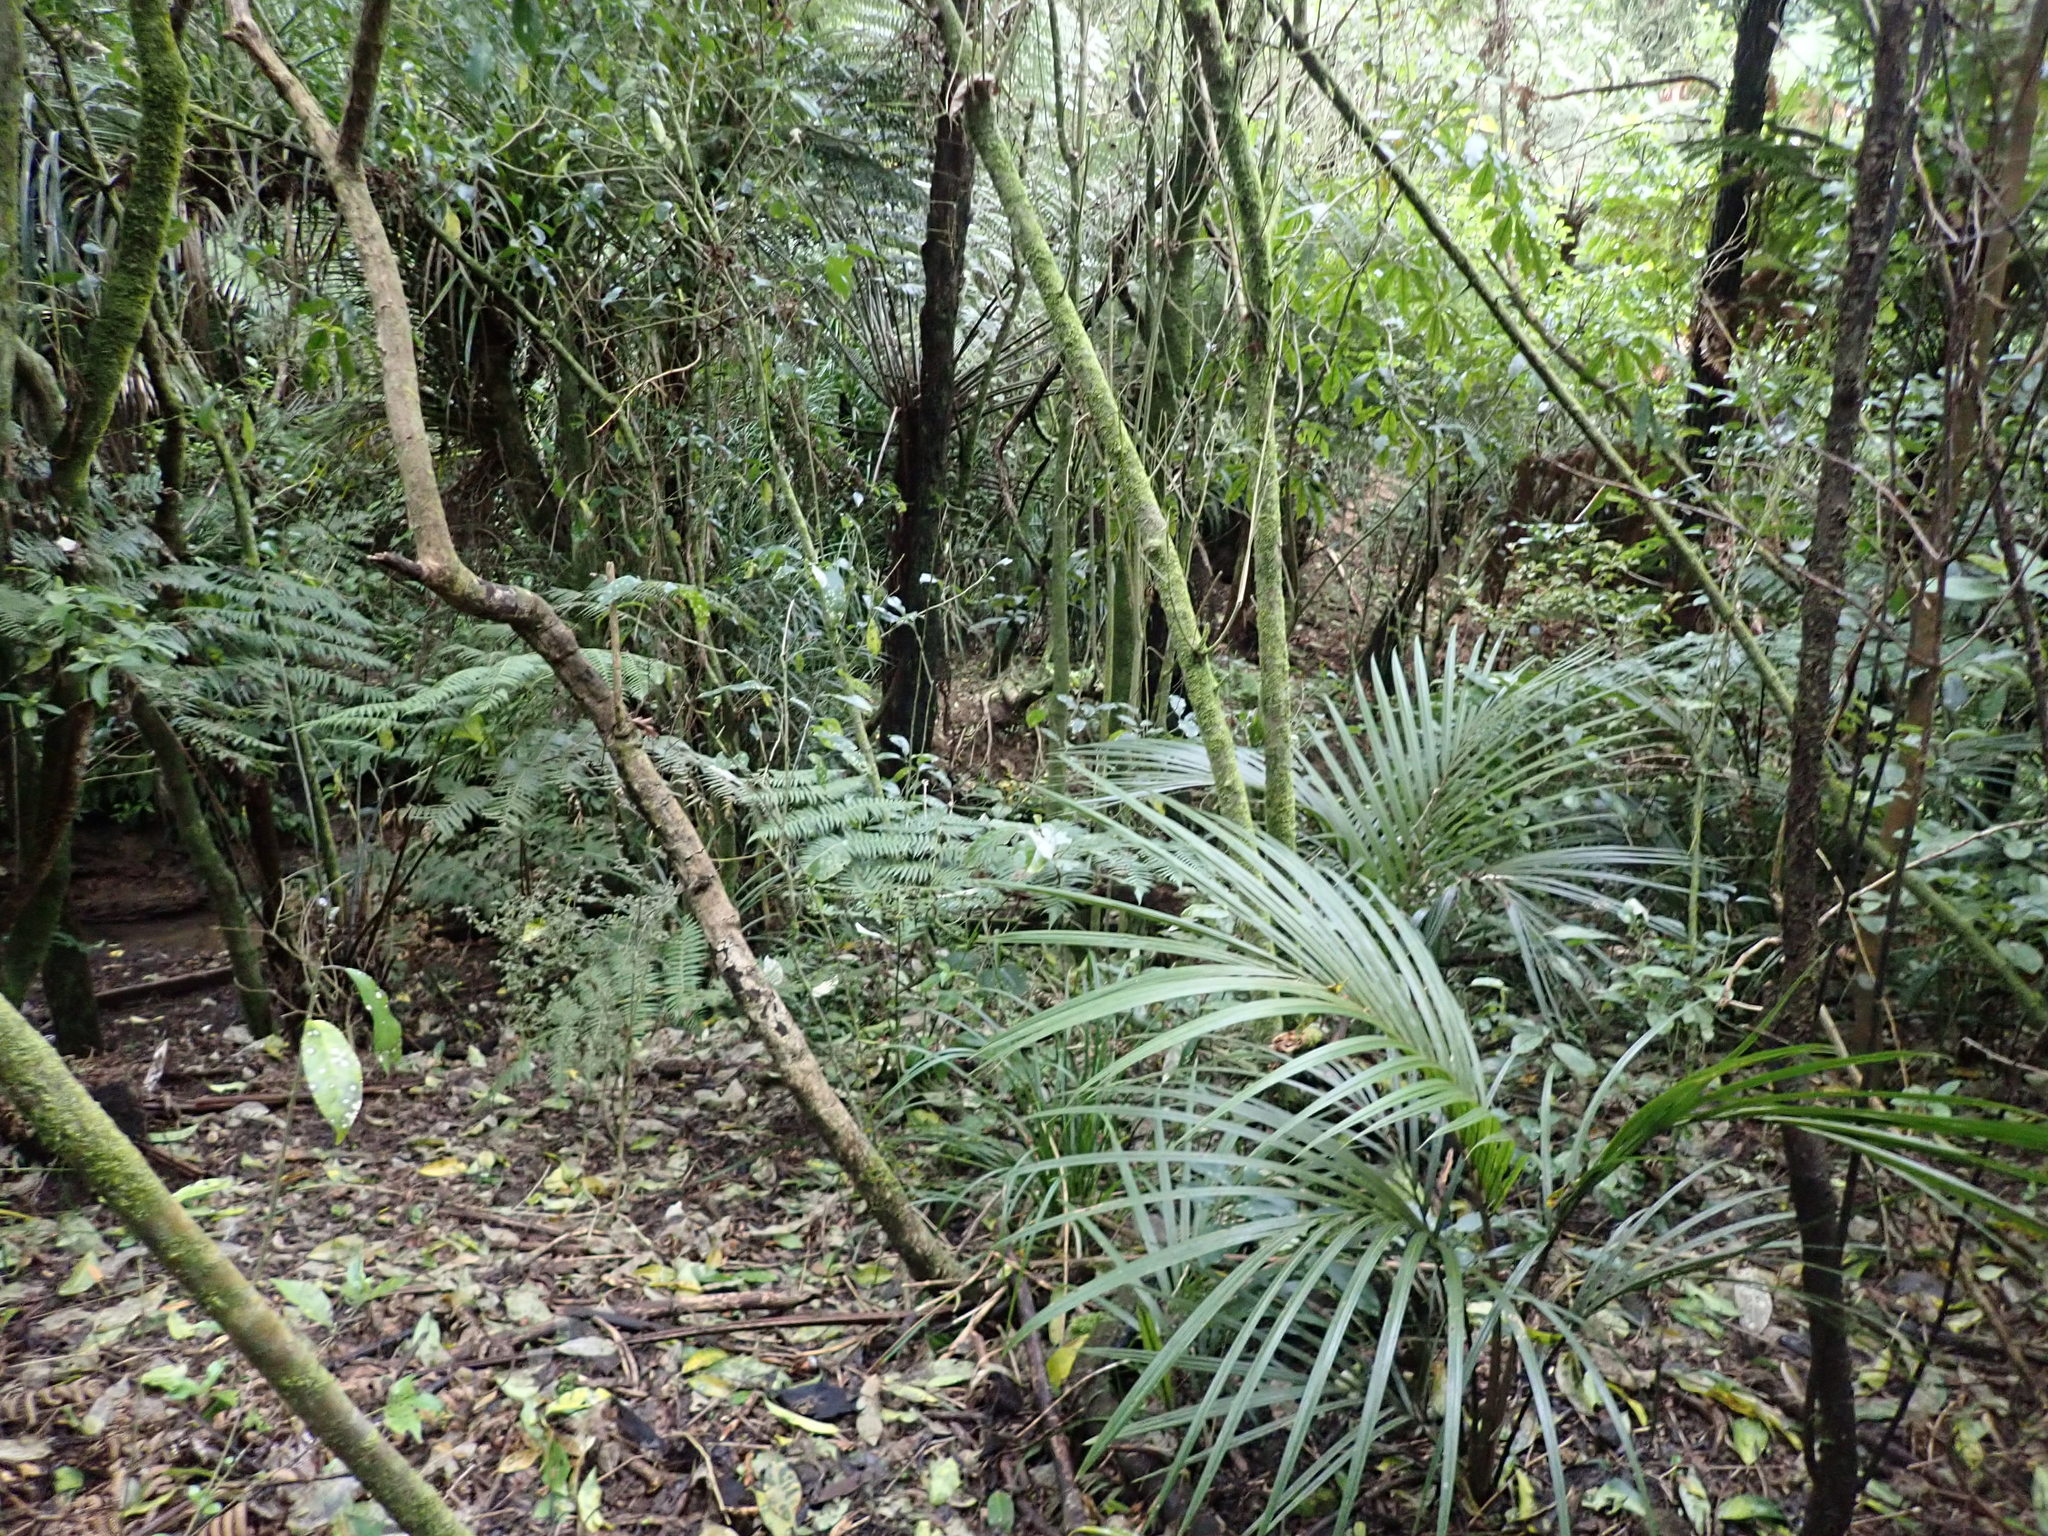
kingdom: Plantae
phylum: Tracheophyta
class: Liliopsida
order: Arecales
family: Arecaceae
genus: Rhopalostylis
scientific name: Rhopalostylis sapida
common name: Feather-duster palm
